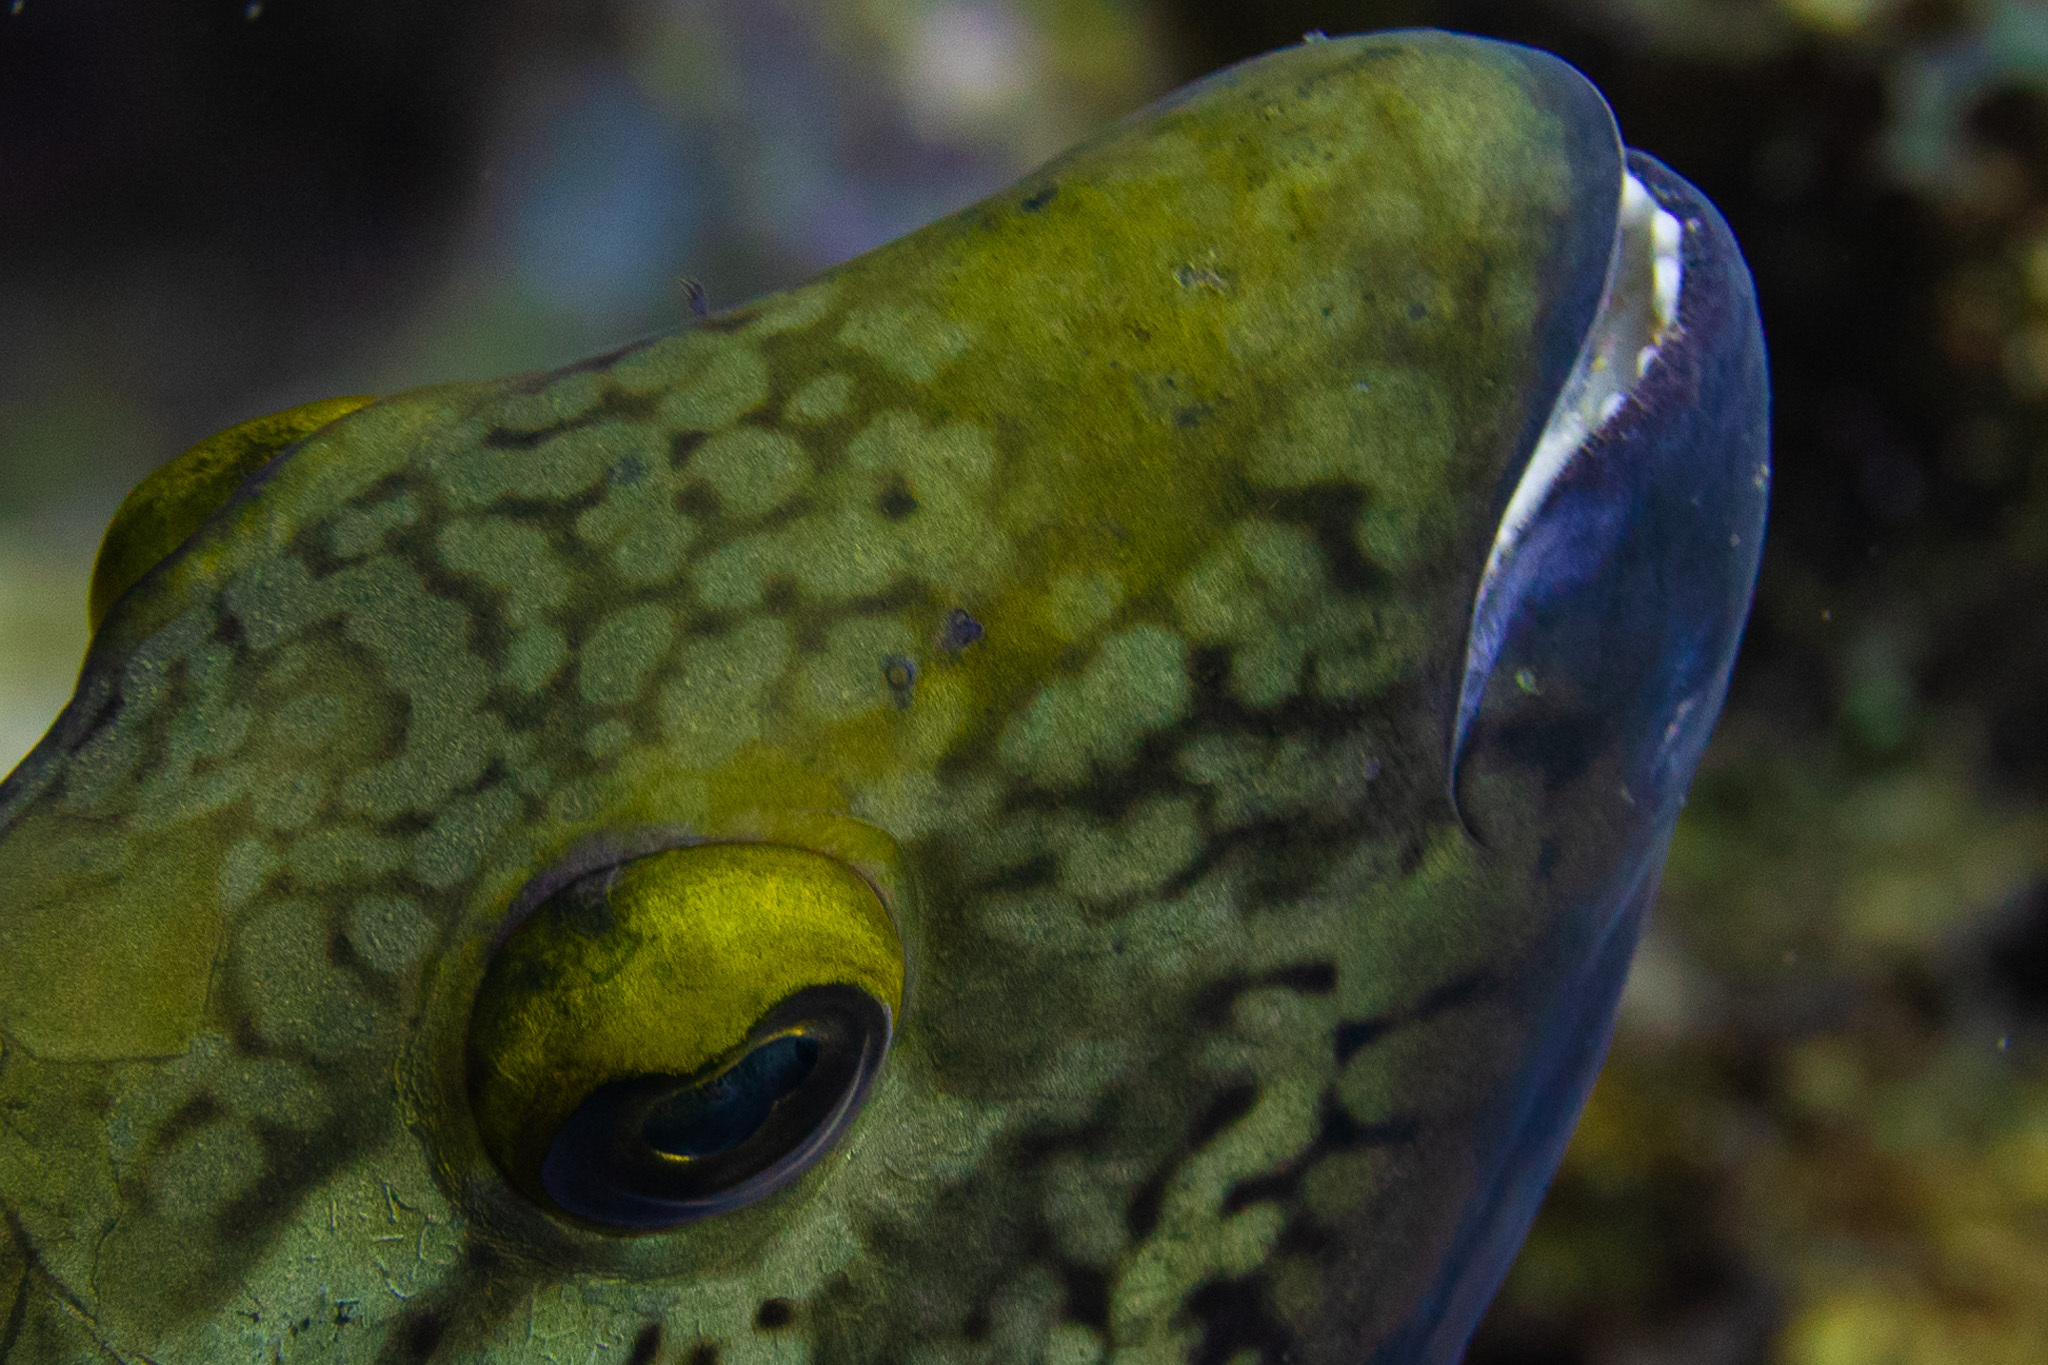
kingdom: Animalia
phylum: Chordata
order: Perciformes
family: Scaridae
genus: Sparisoma
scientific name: Sparisoma viride
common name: Stoplight parrotfish
